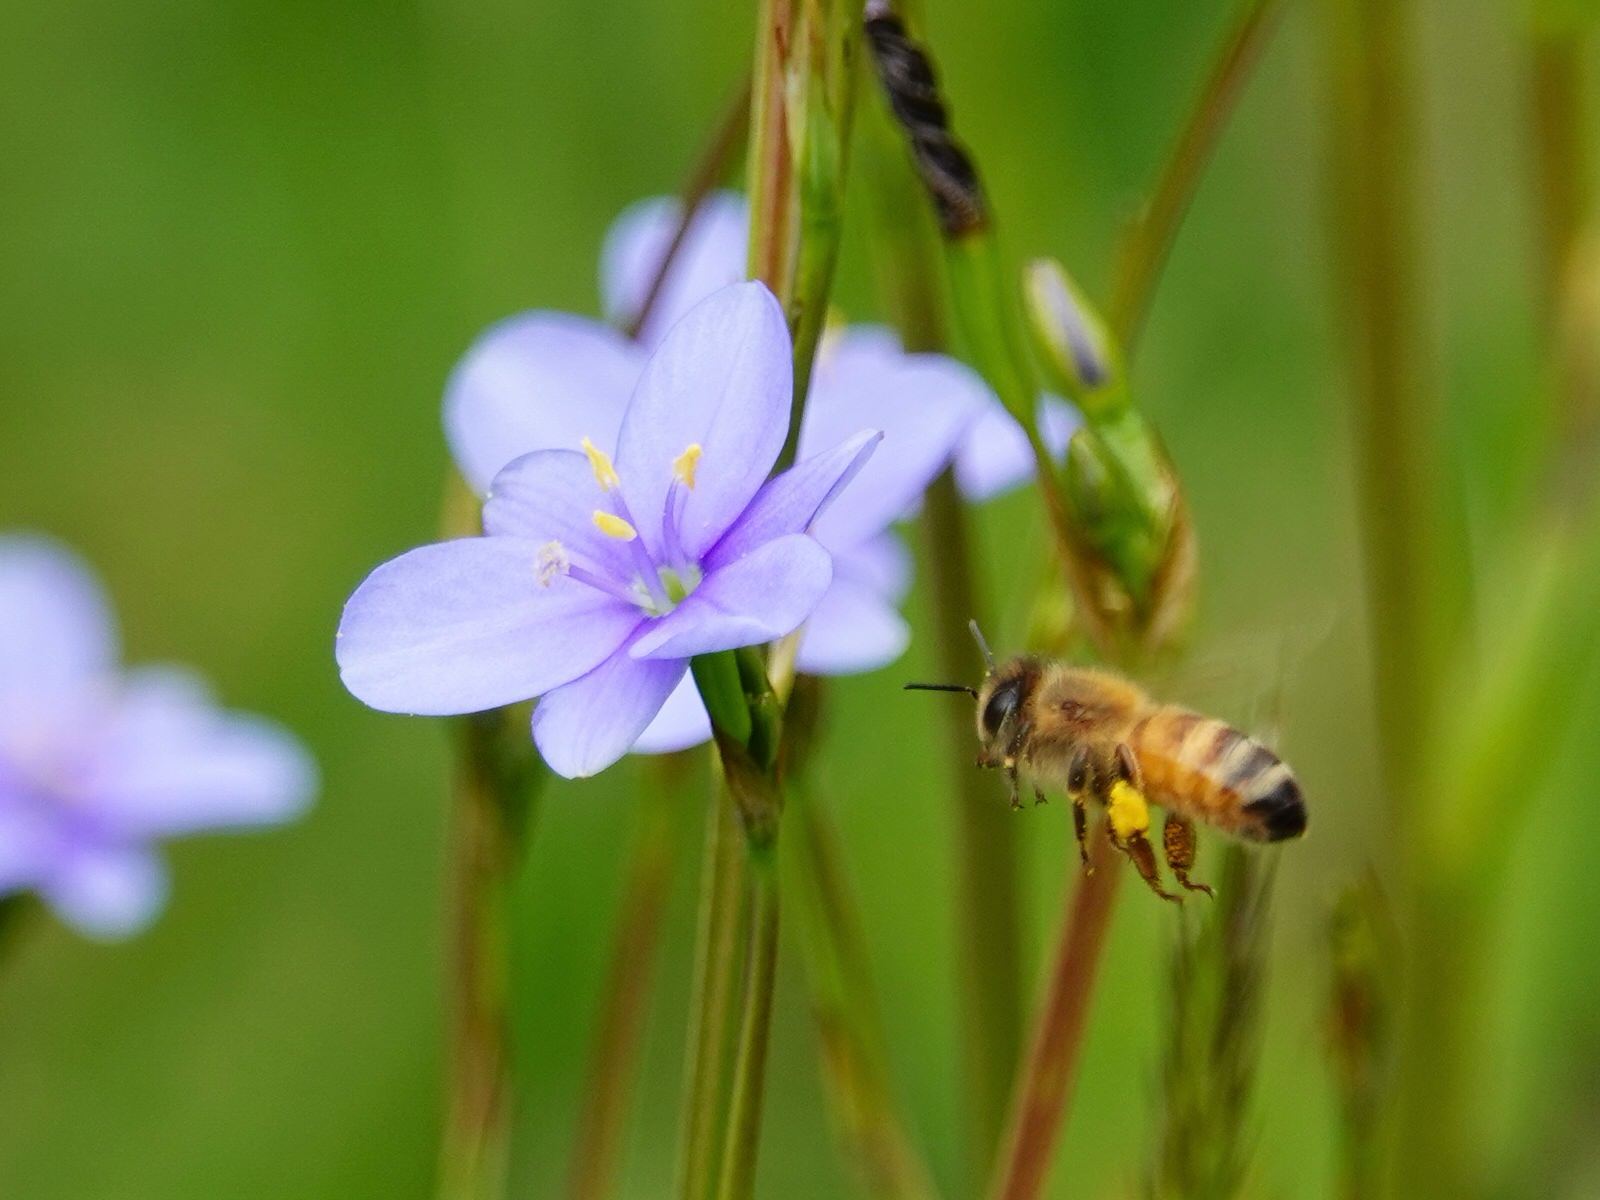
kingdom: Animalia
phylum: Arthropoda
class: Insecta
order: Hymenoptera
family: Apidae
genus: Apis
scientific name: Apis mellifera
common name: Honey bee
